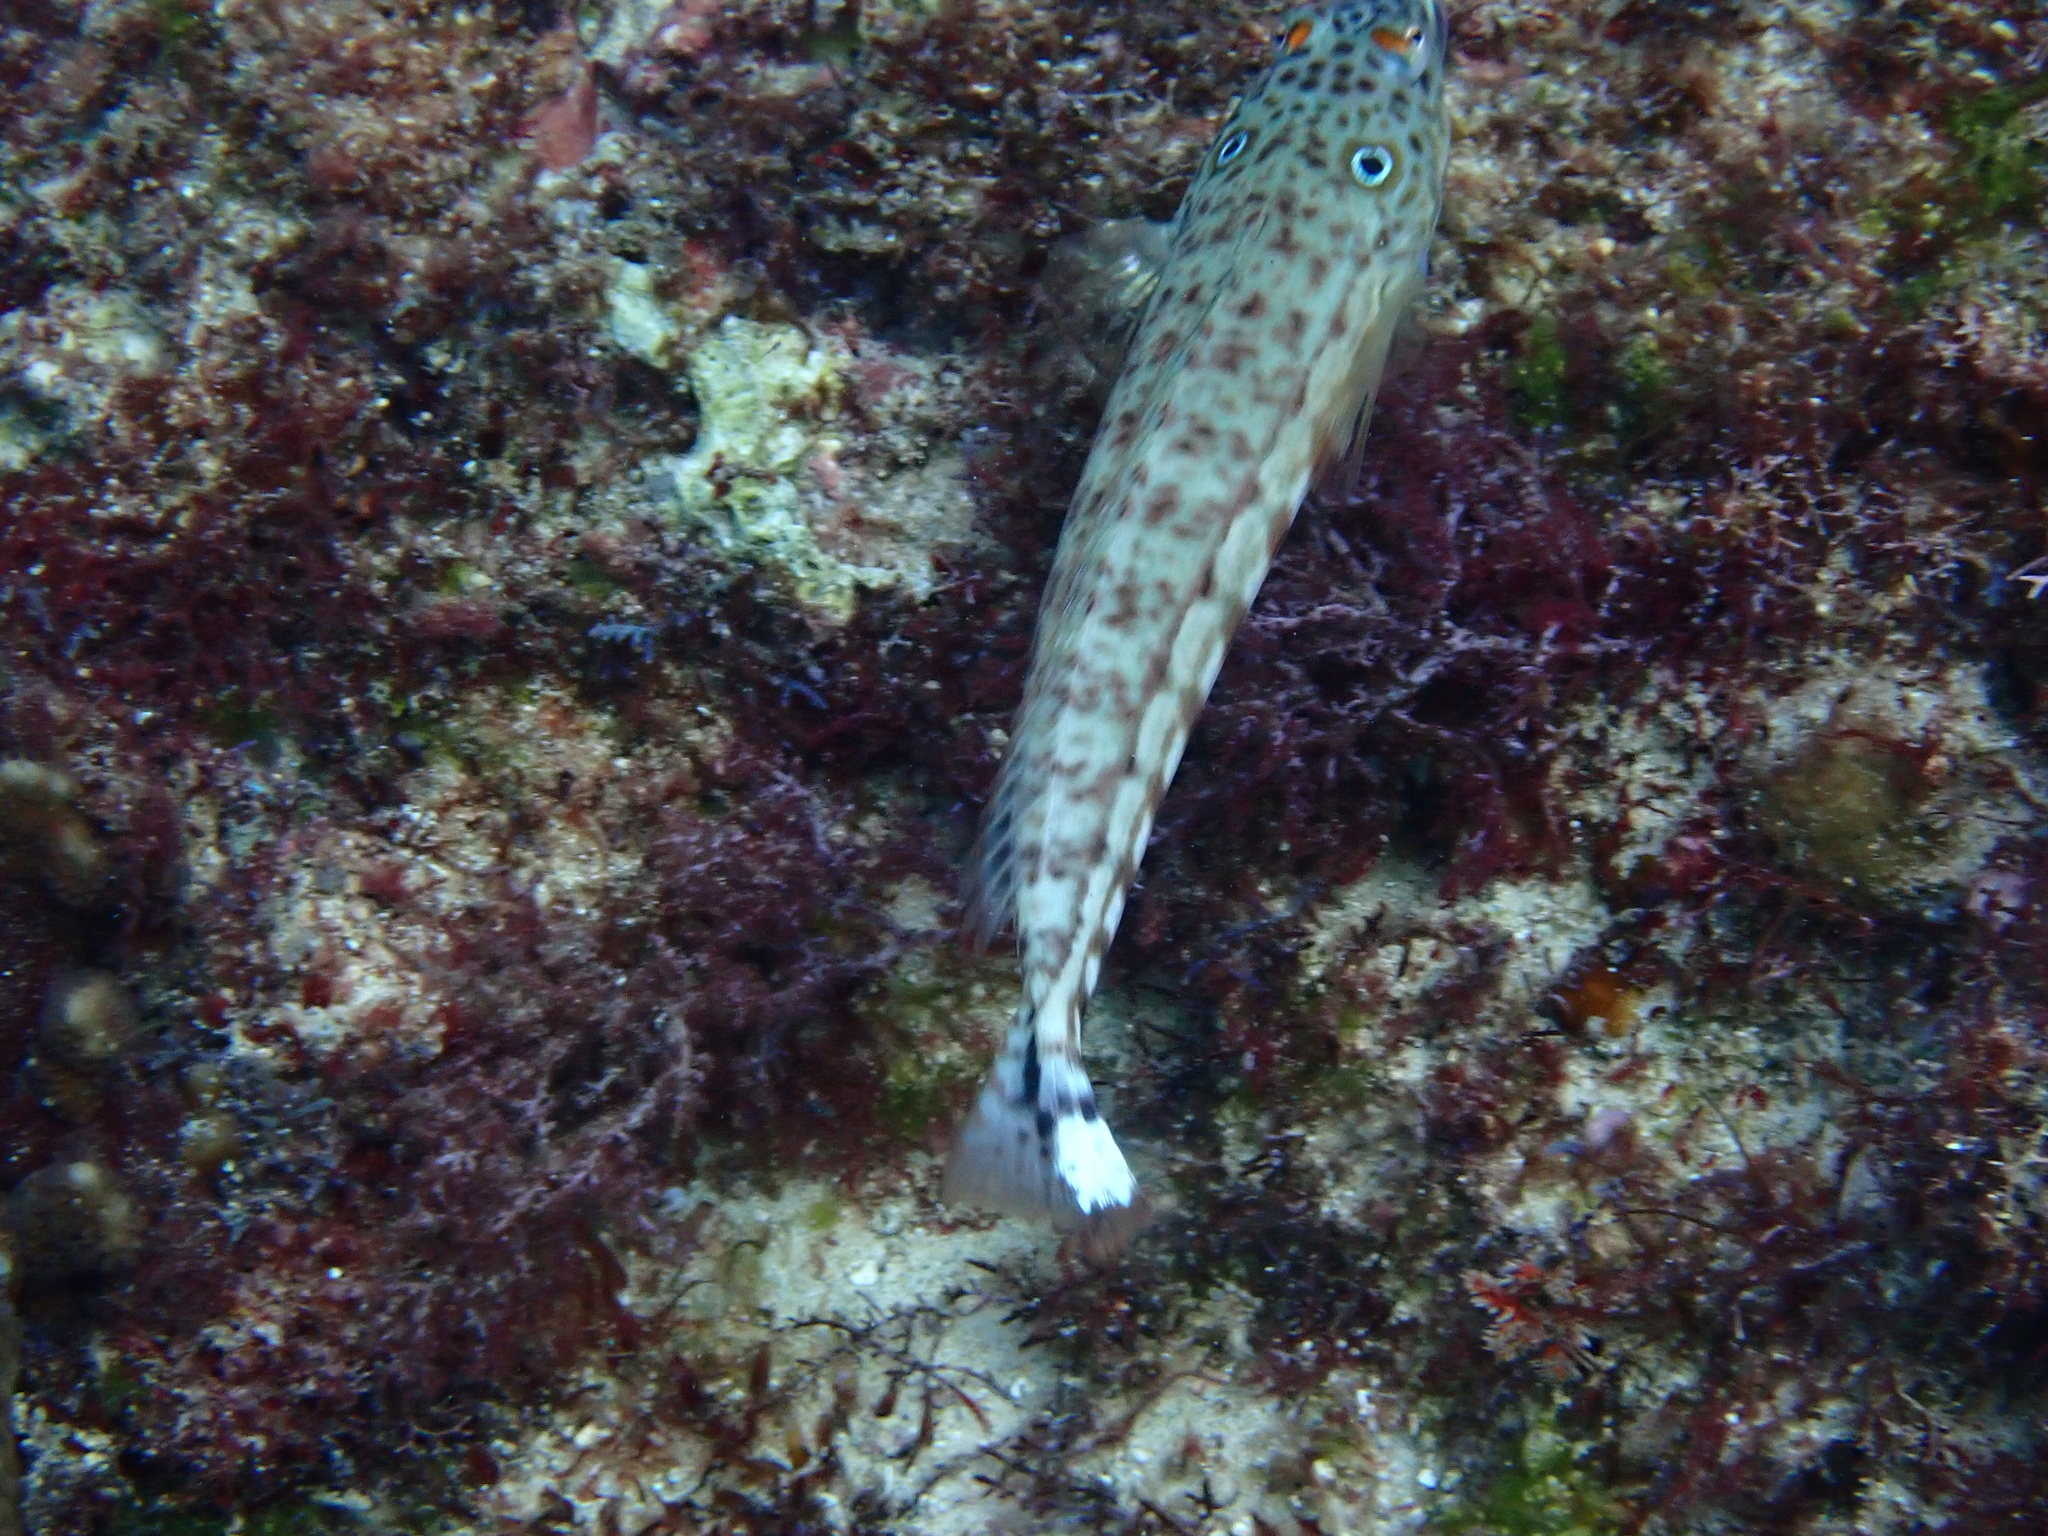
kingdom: Animalia
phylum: Chordata
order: Perciformes
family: Pinguipedidae
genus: Parapercis
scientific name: Parapercis clathrata
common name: Latticed sandperch
